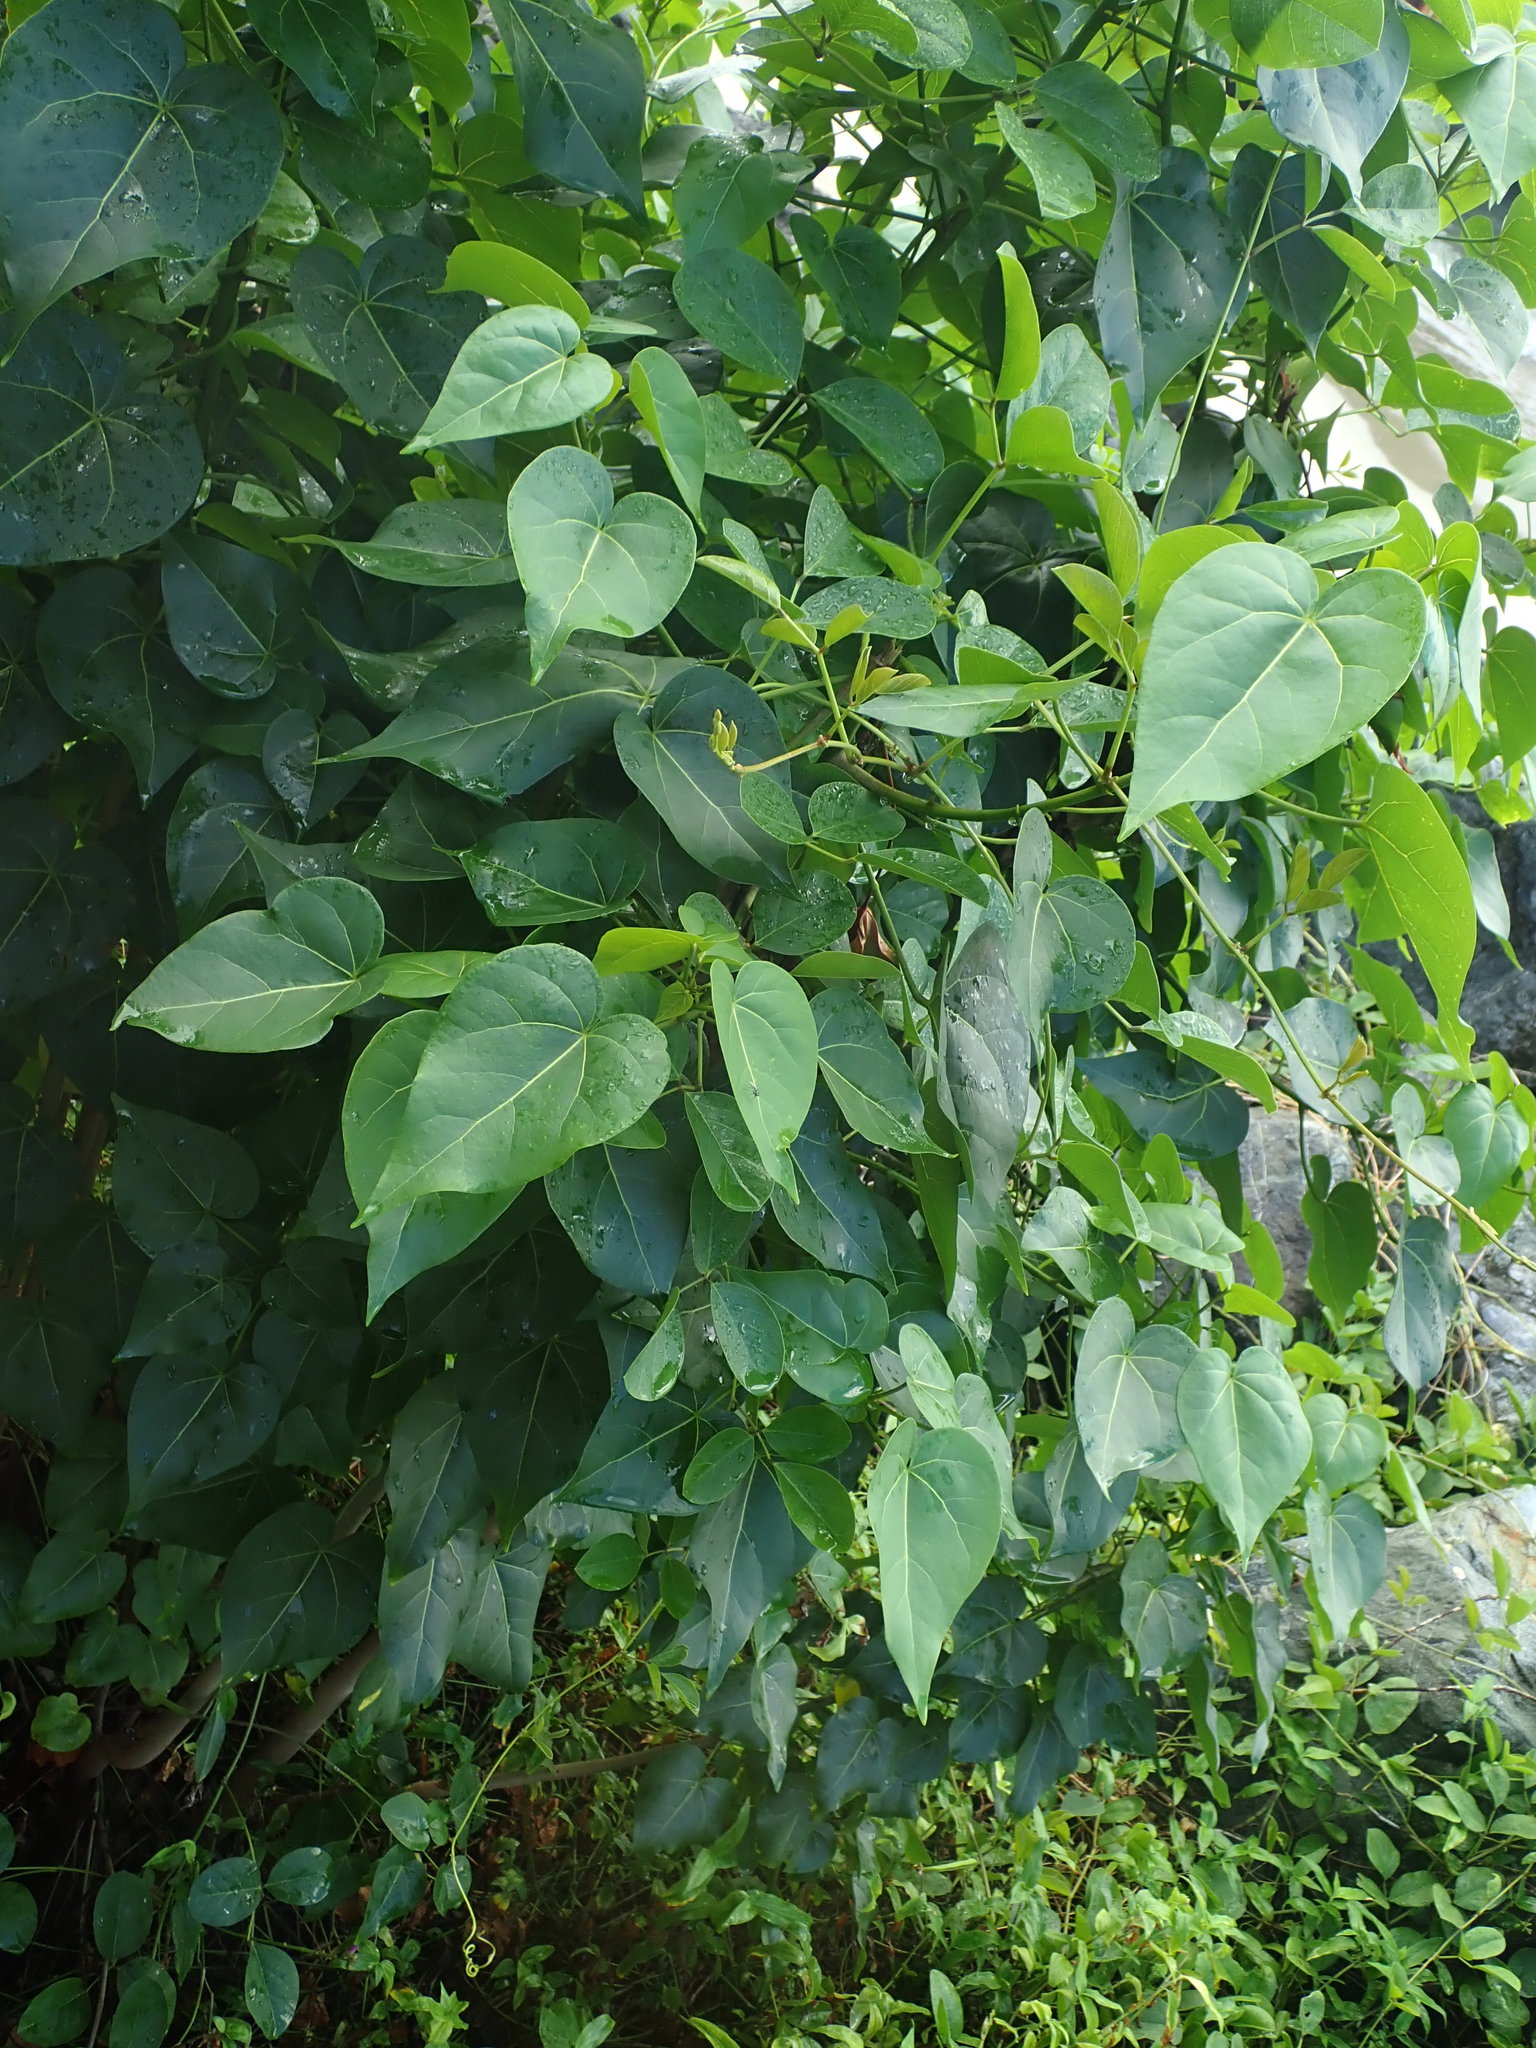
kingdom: Plantae
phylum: Tracheophyta
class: Magnoliopsida
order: Malvales
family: Malvaceae
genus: Thespesia
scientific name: Thespesia populnea
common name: Seaside mahoe
